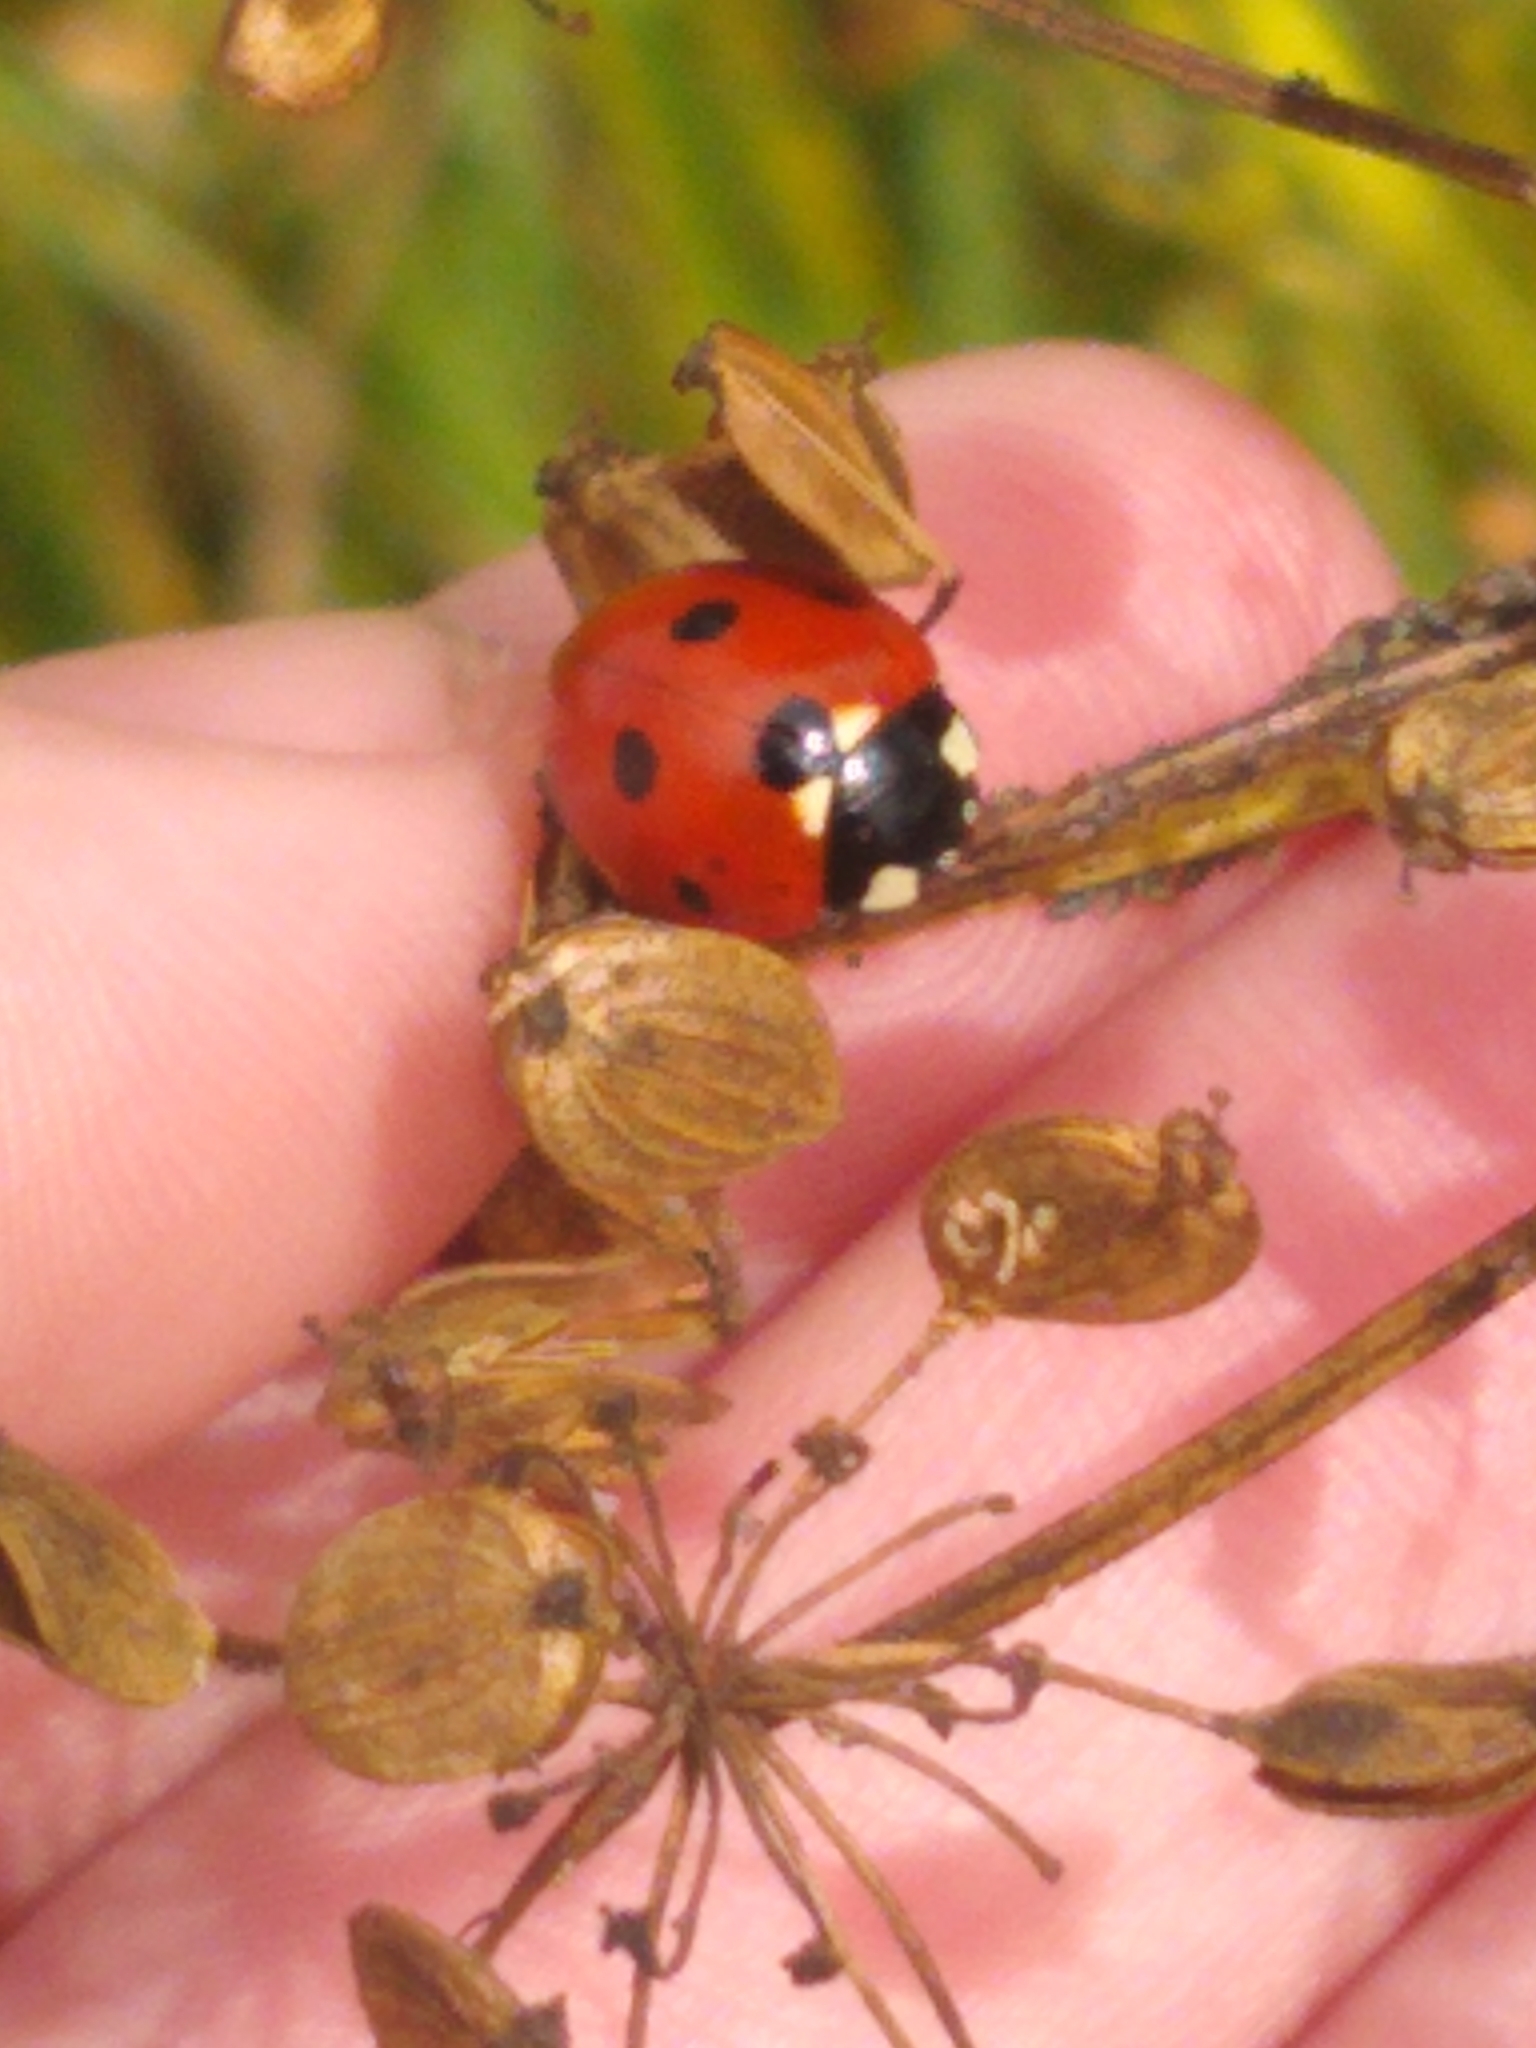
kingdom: Animalia
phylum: Arthropoda
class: Insecta
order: Coleoptera
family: Coccinellidae
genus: Coccinella
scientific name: Coccinella septempunctata
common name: Sevenspotted lady beetle
